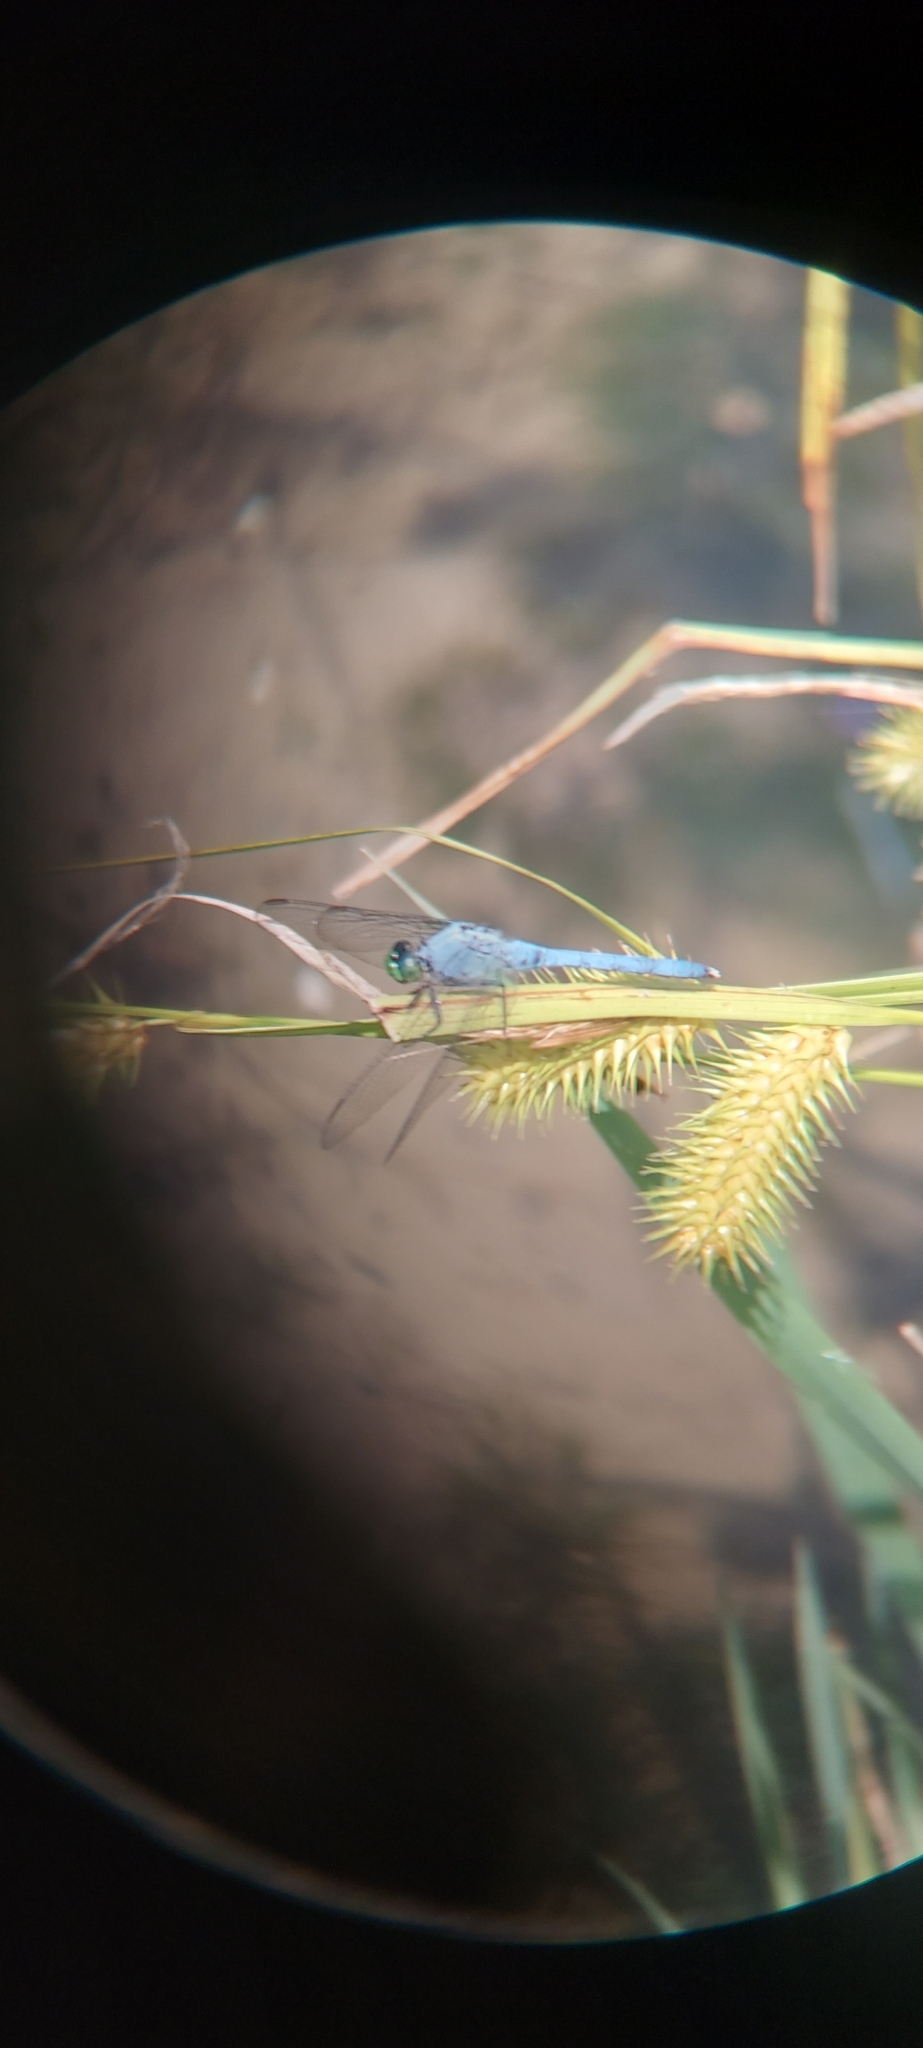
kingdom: Animalia
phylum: Arthropoda
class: Insecta
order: Odonata
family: Libellulidae
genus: Erythemis
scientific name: Erythemis simplicicollis
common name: Eastern pondhawk
